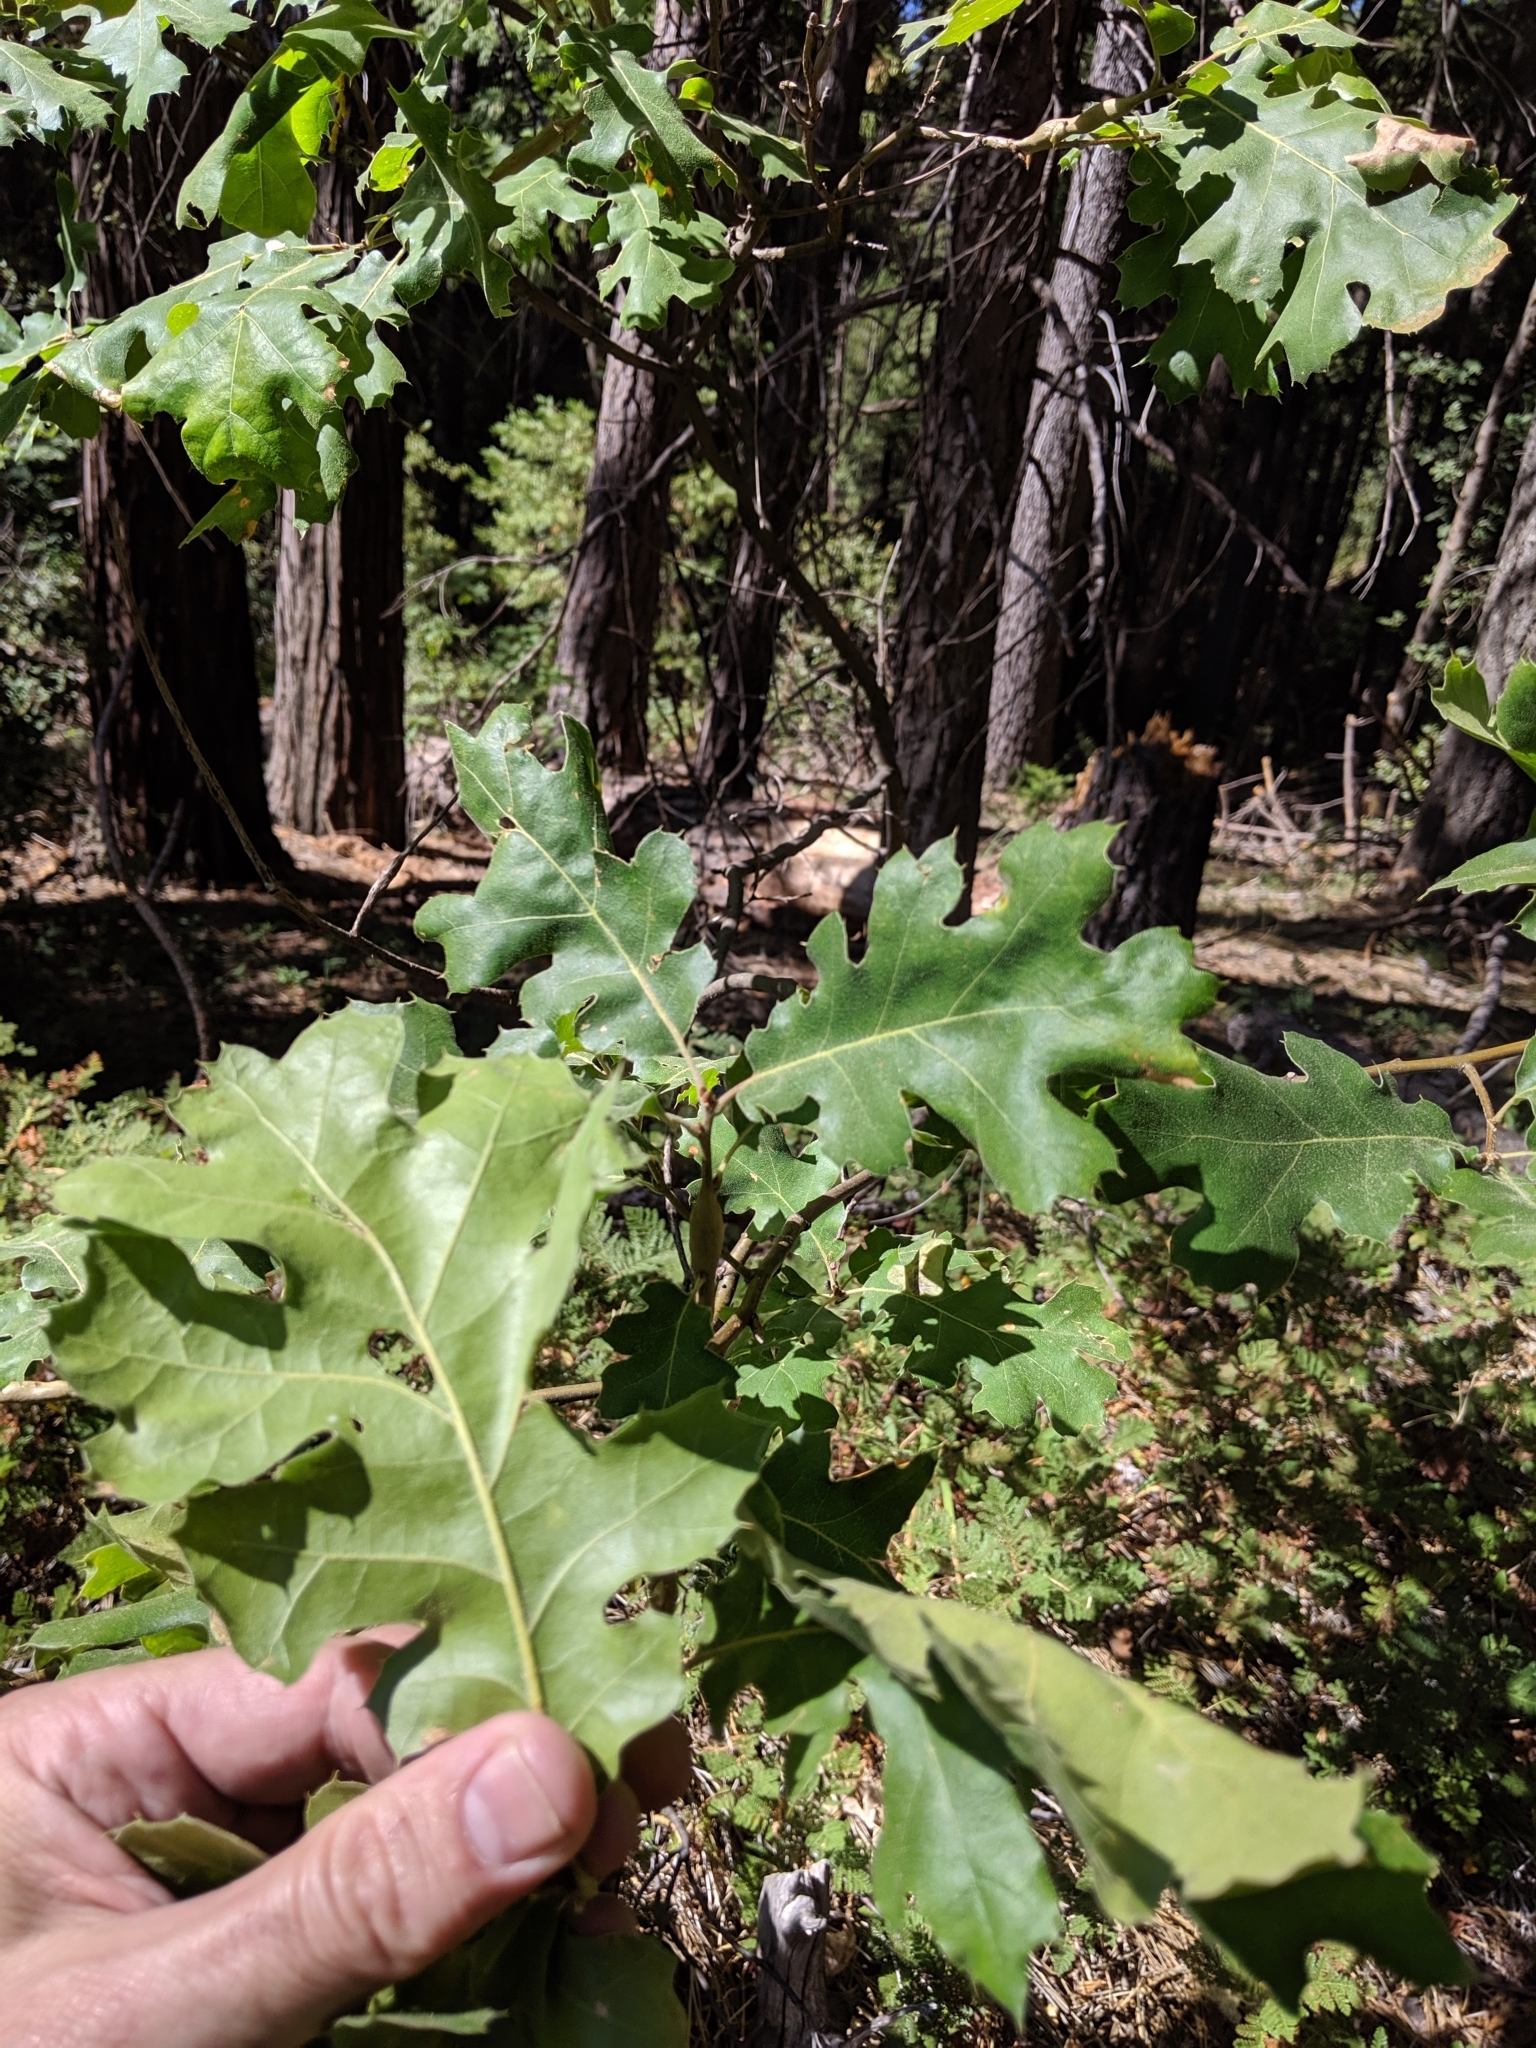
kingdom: Plantae
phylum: Tracheophyta
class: Magnoliopsida
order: Fagales
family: Fagaceae
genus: Quercus
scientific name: Quercus kelloggii
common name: California black oak
